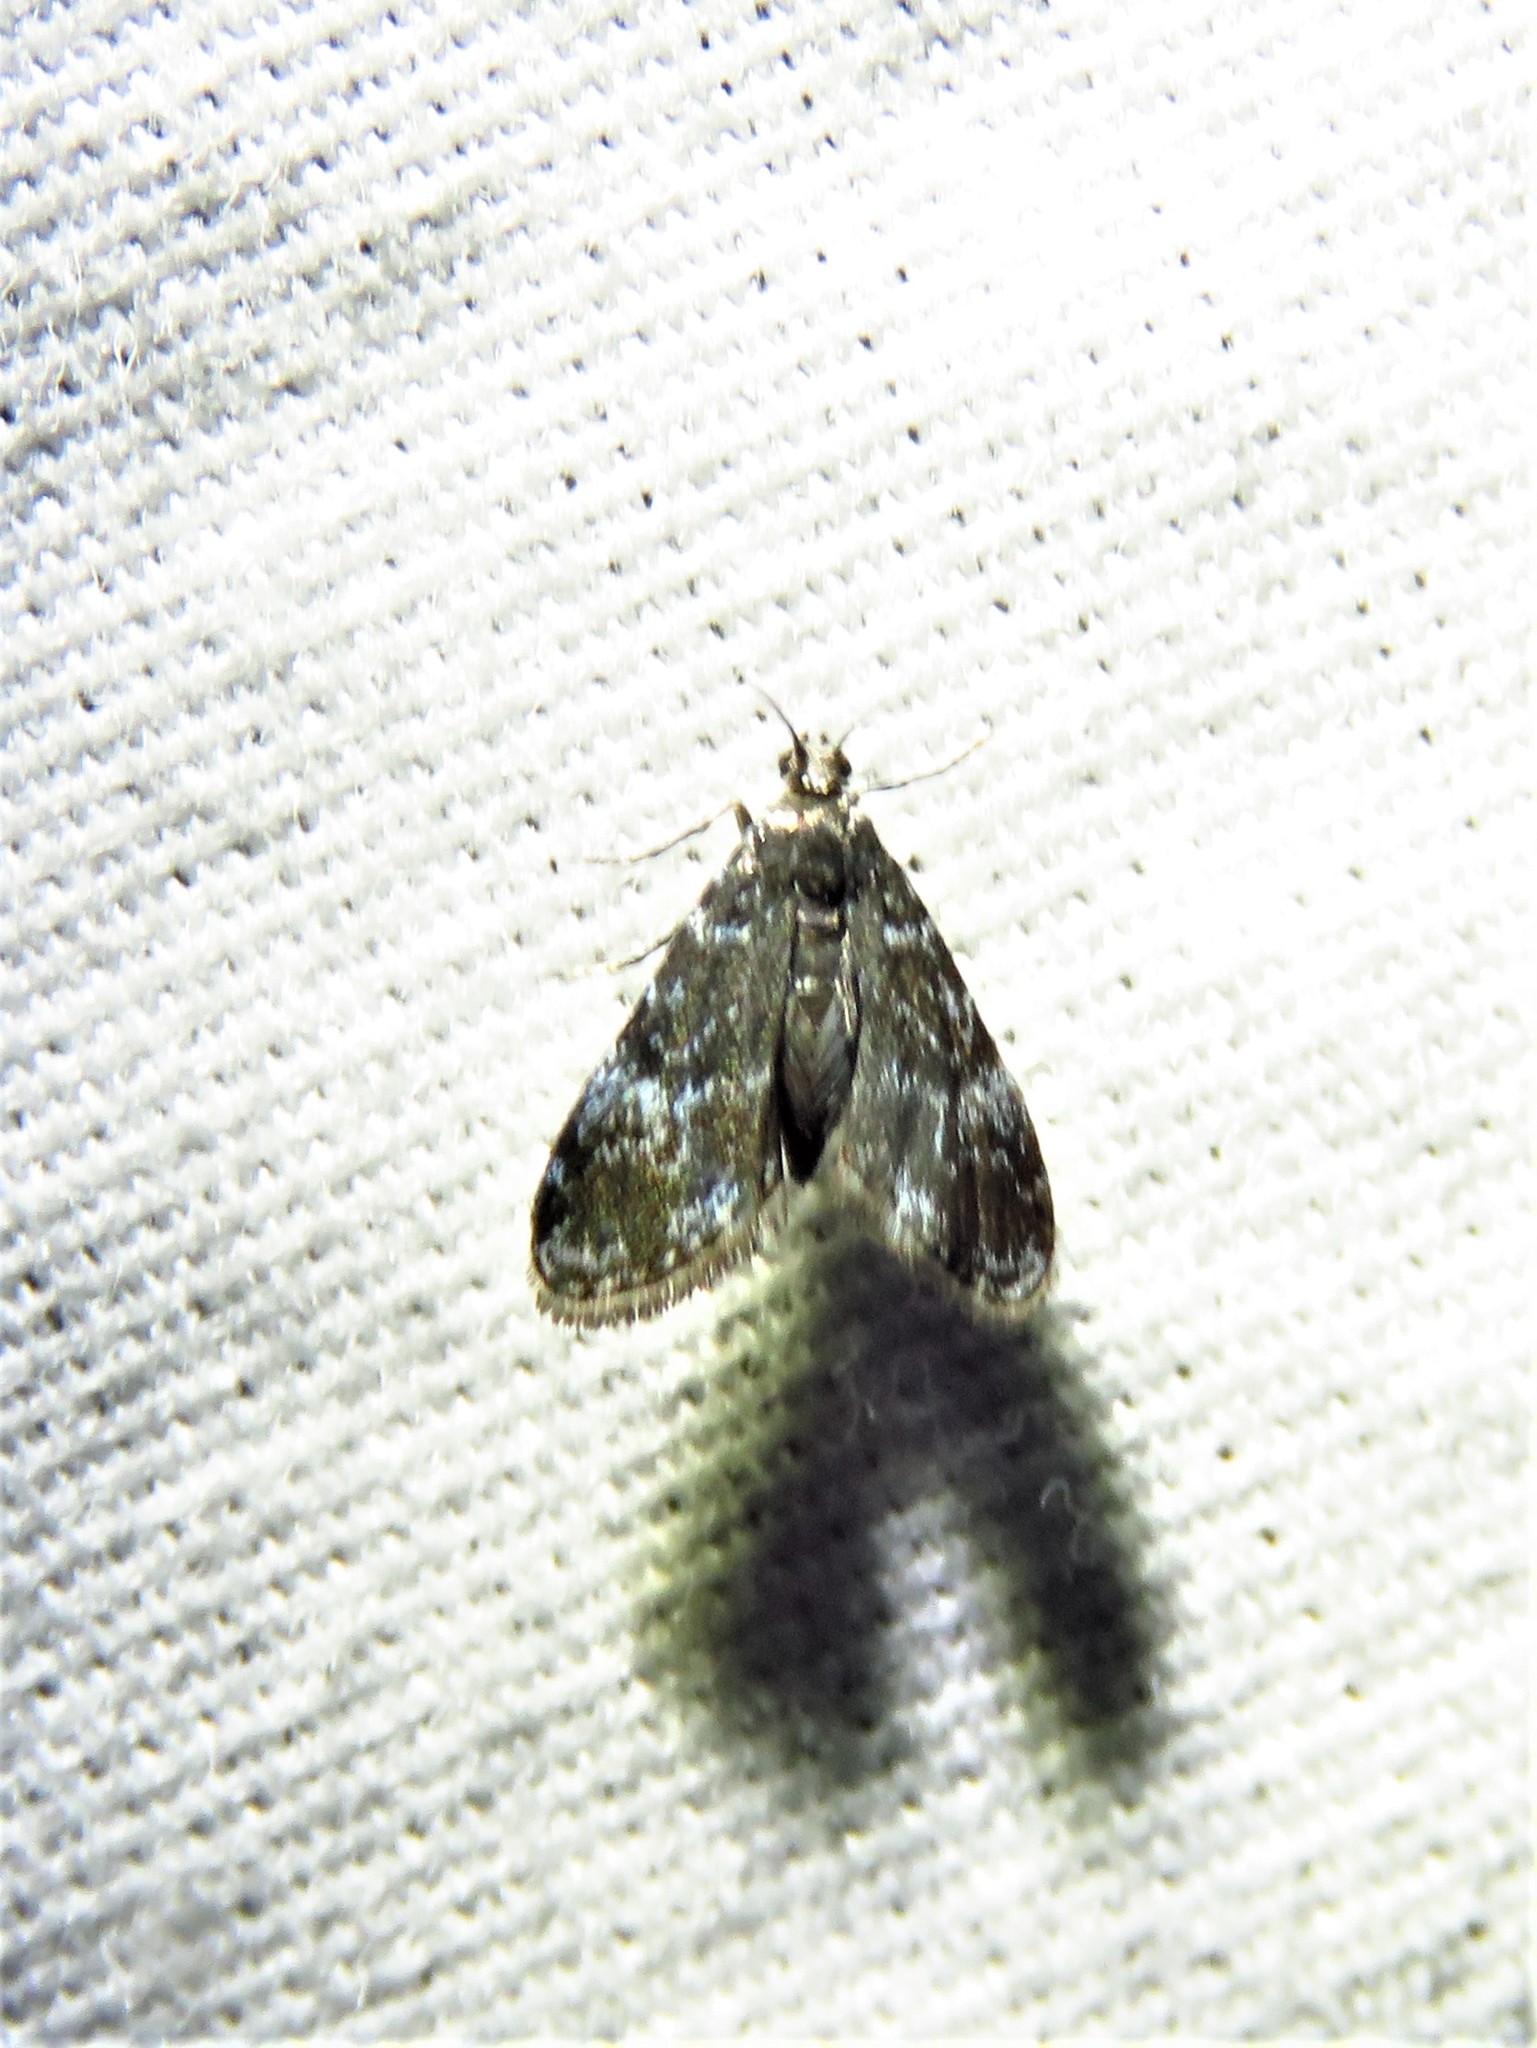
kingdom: Animalia
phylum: Arthropoda
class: Insecta
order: Lepidoptera
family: Crambidae
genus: Elophila
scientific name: Elophila tinealis
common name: Black duckweed moth
